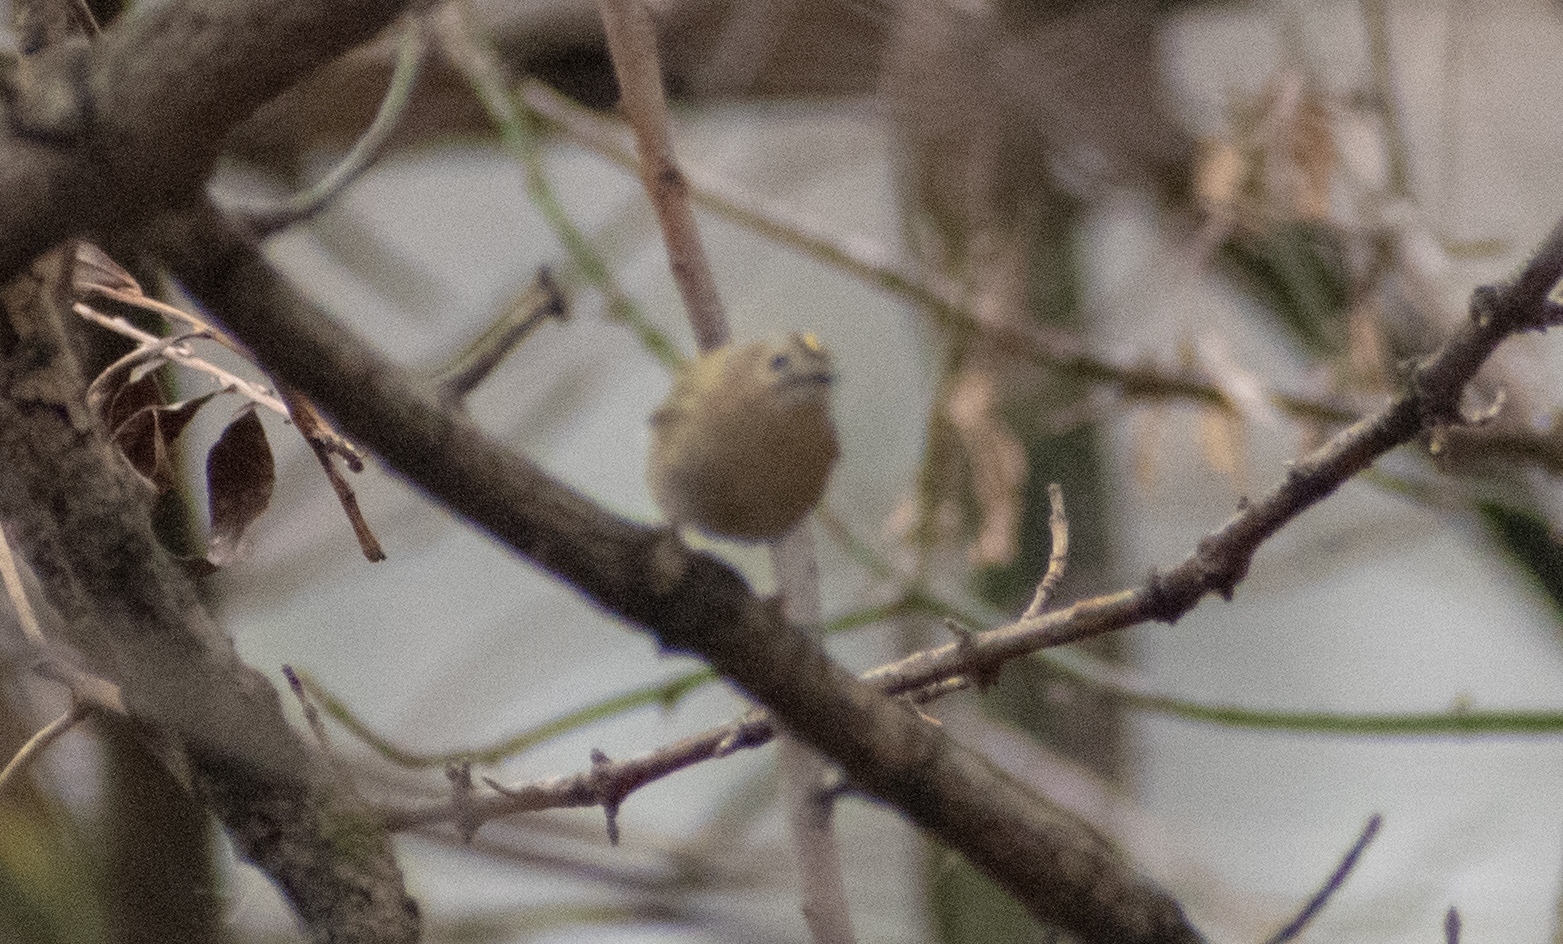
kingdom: Animalia
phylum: Chordata
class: Aves
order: Passeriformes
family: Regulidae
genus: Regulus
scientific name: Regulus regulus
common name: Goldcrest
